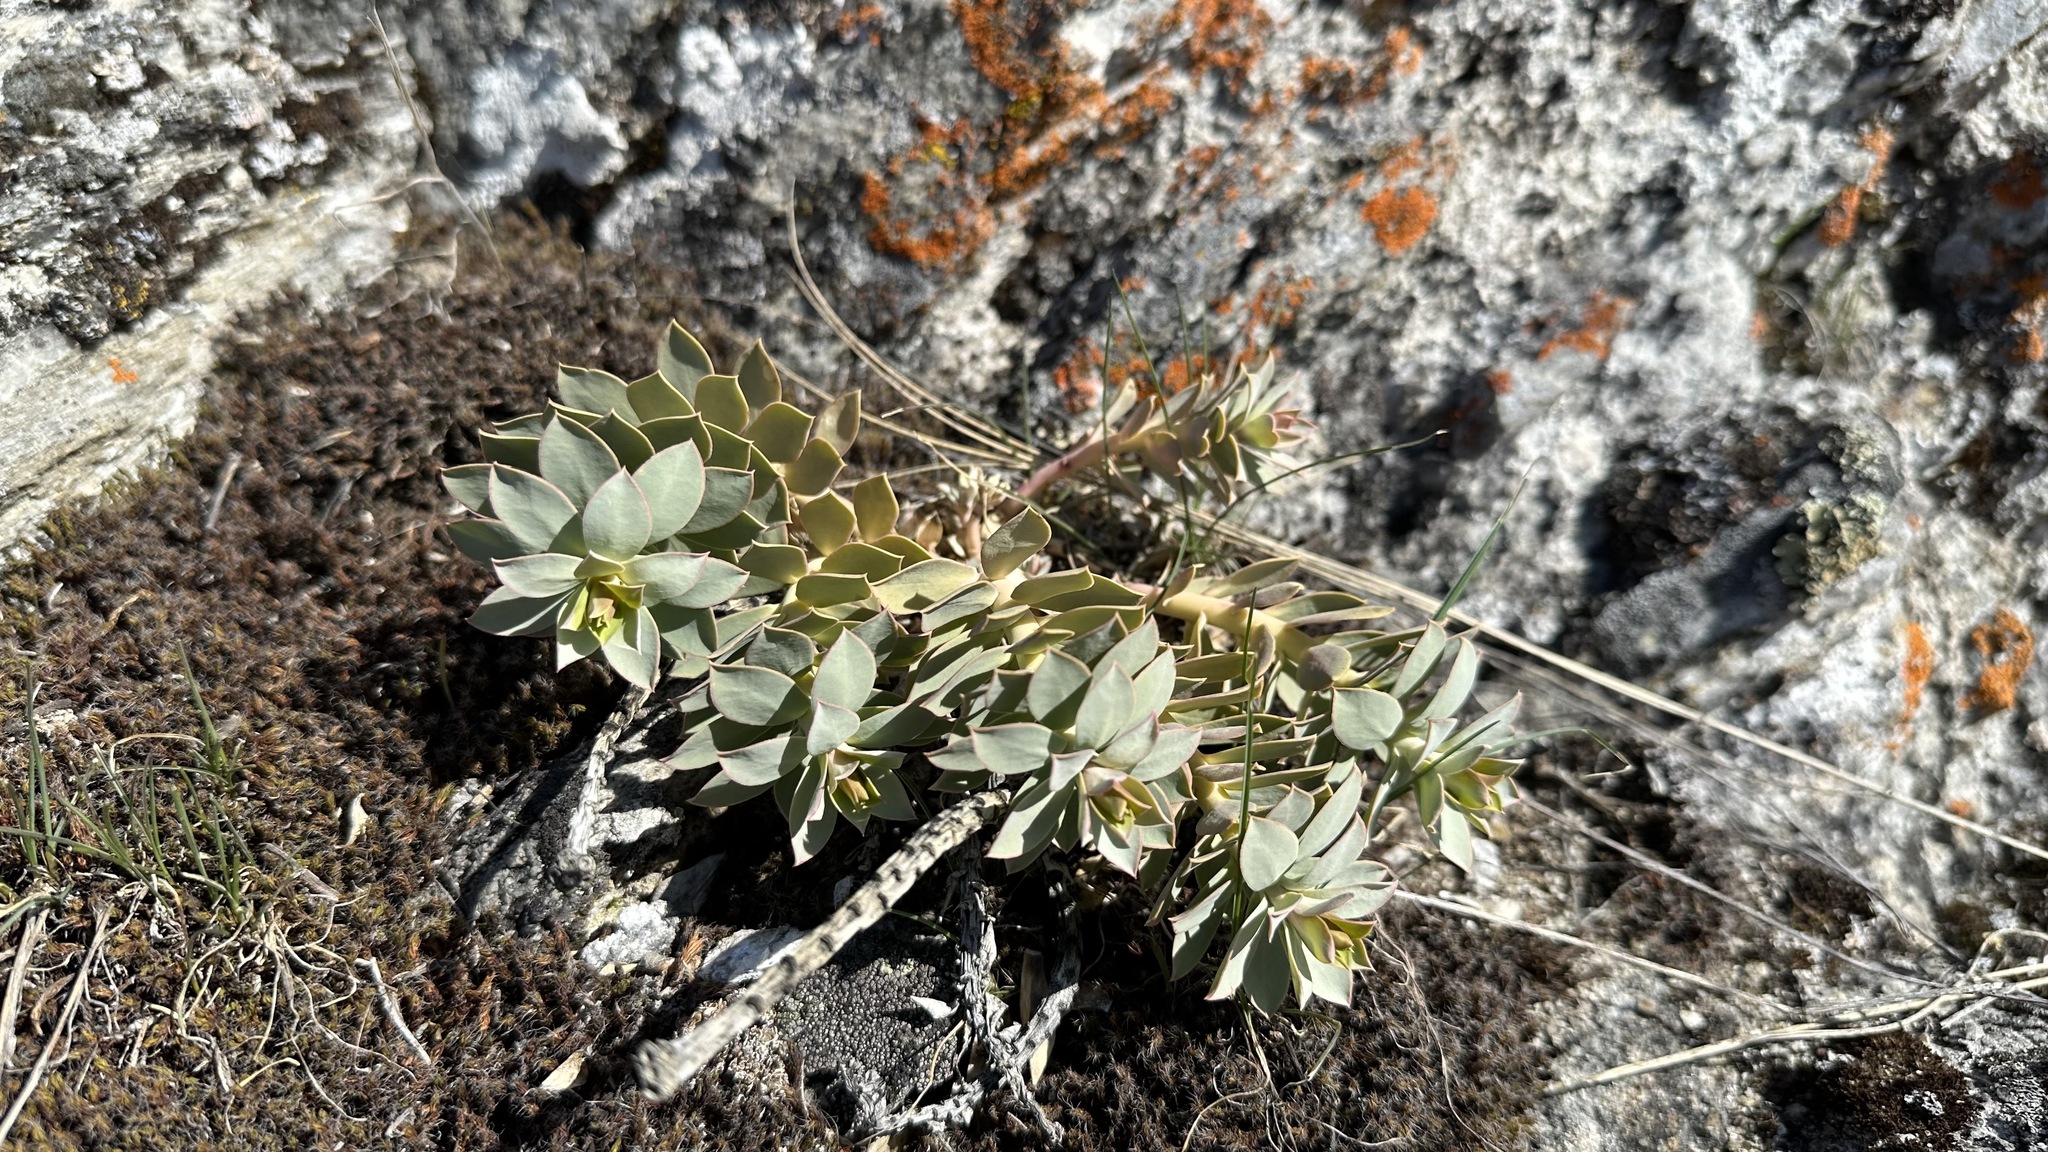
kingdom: Plantae
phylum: Tracheophyta
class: Magnoliopsida
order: Malpighiales
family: Euphorbiaceae
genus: Euphorbia
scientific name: Euphorbia myrsinites
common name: Myrtle spurge
